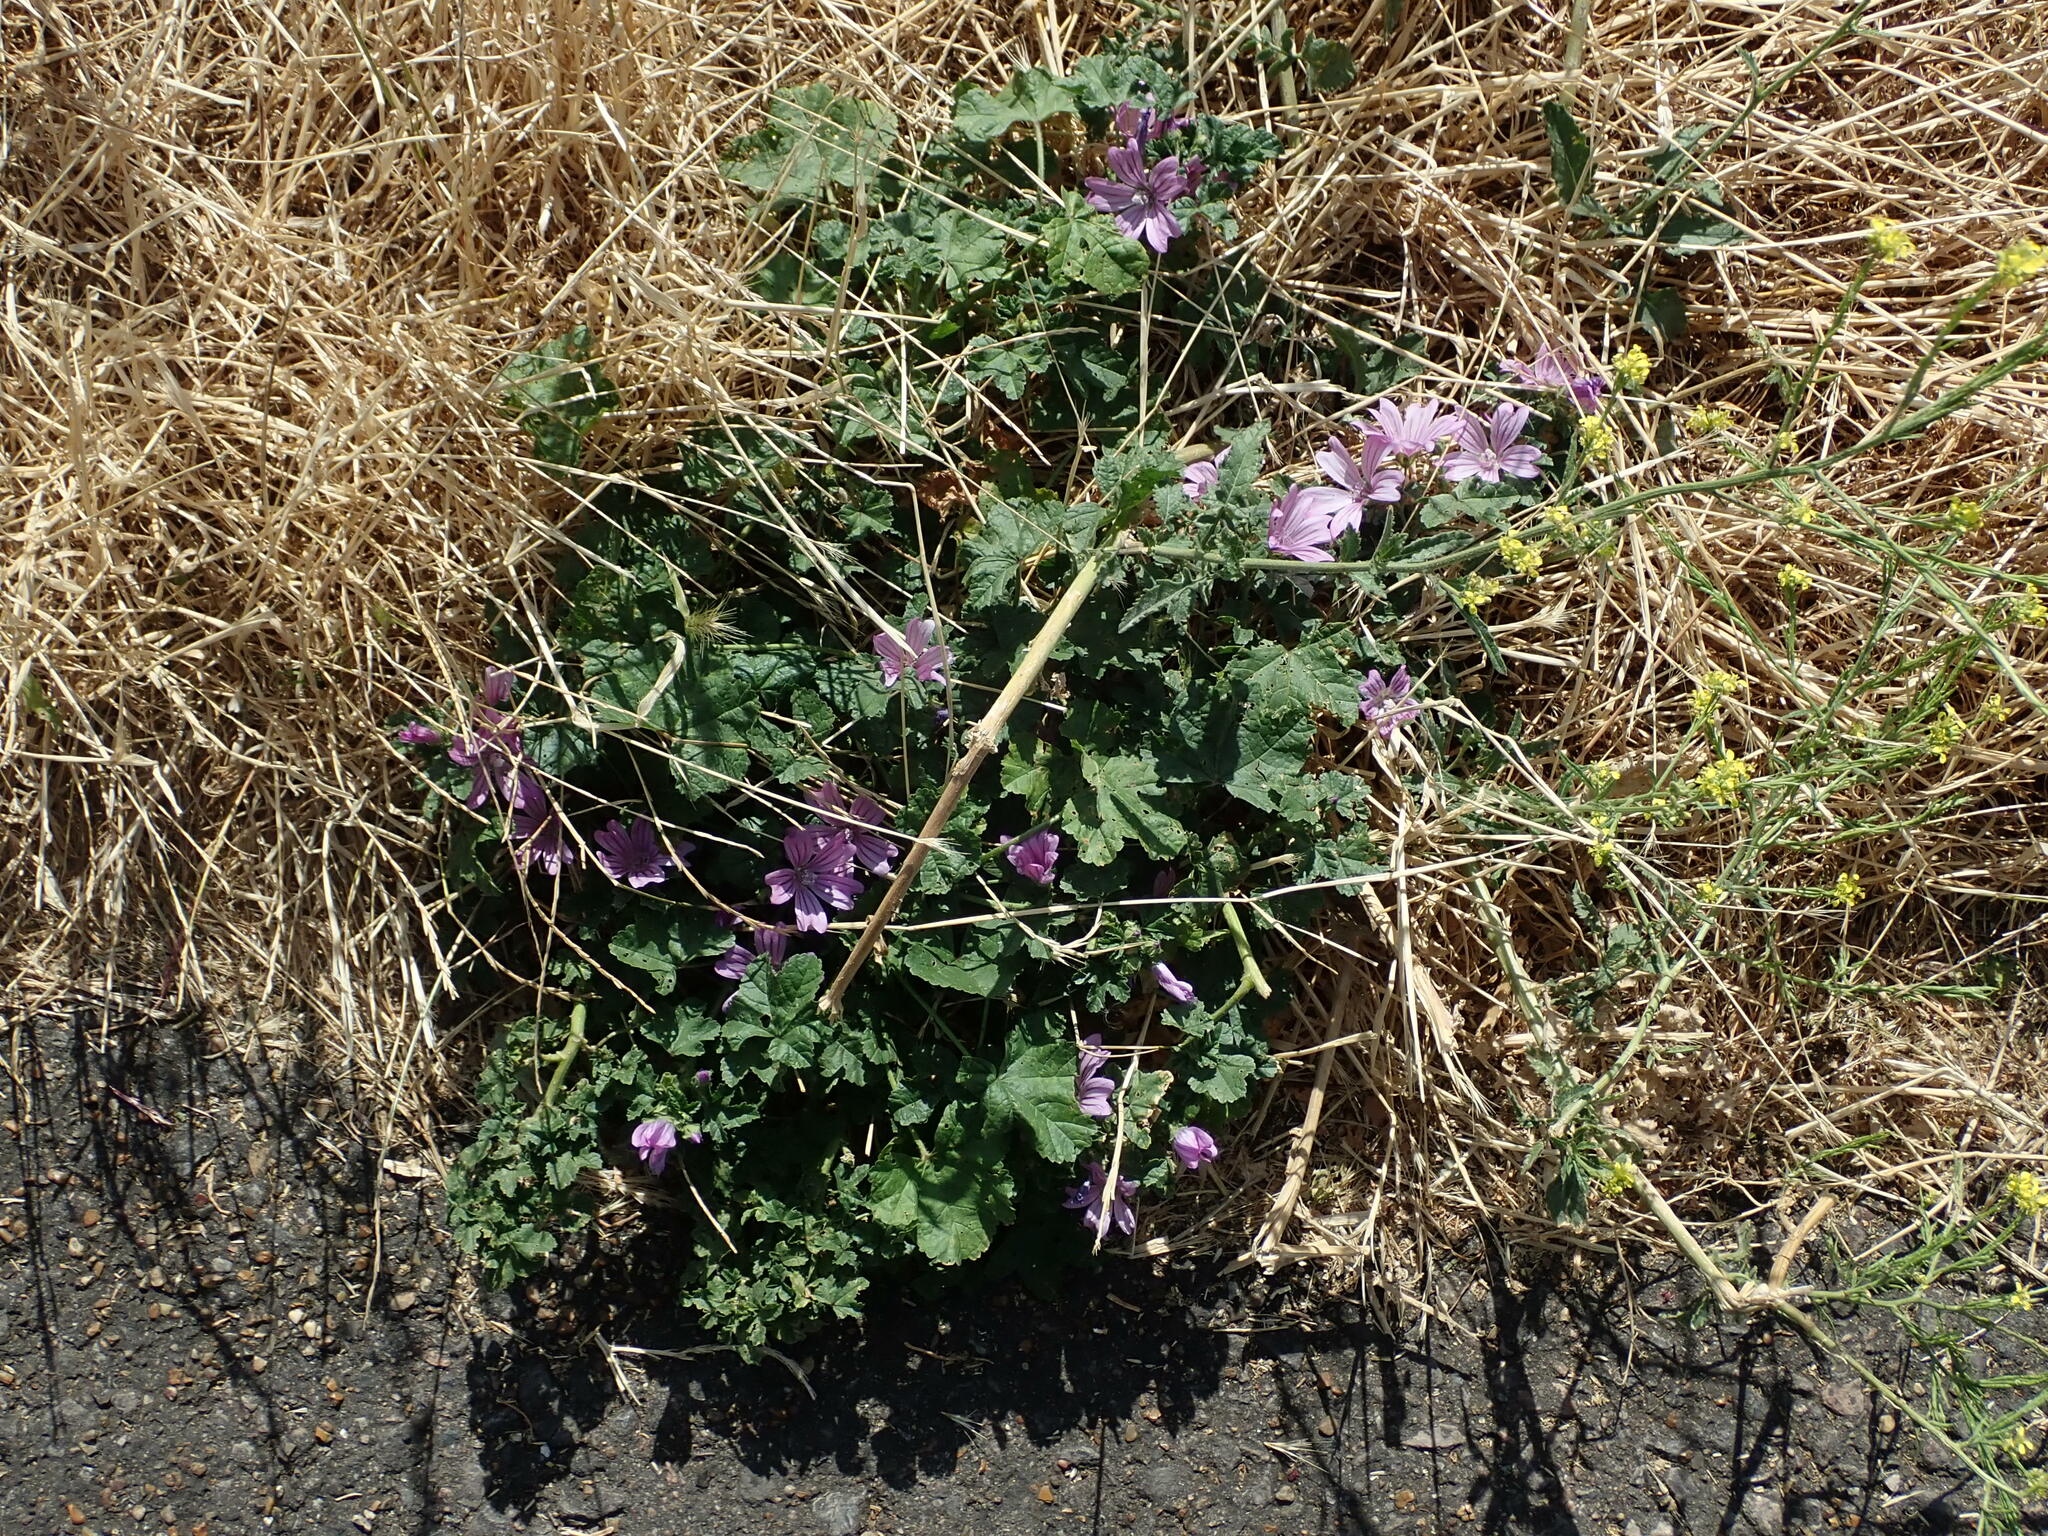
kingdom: Plantae
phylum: Tracheophyta
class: Magnoliopsida
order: Malvales
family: Malvaceae
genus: Malva
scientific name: Malva sylvestris
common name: Common mallow
